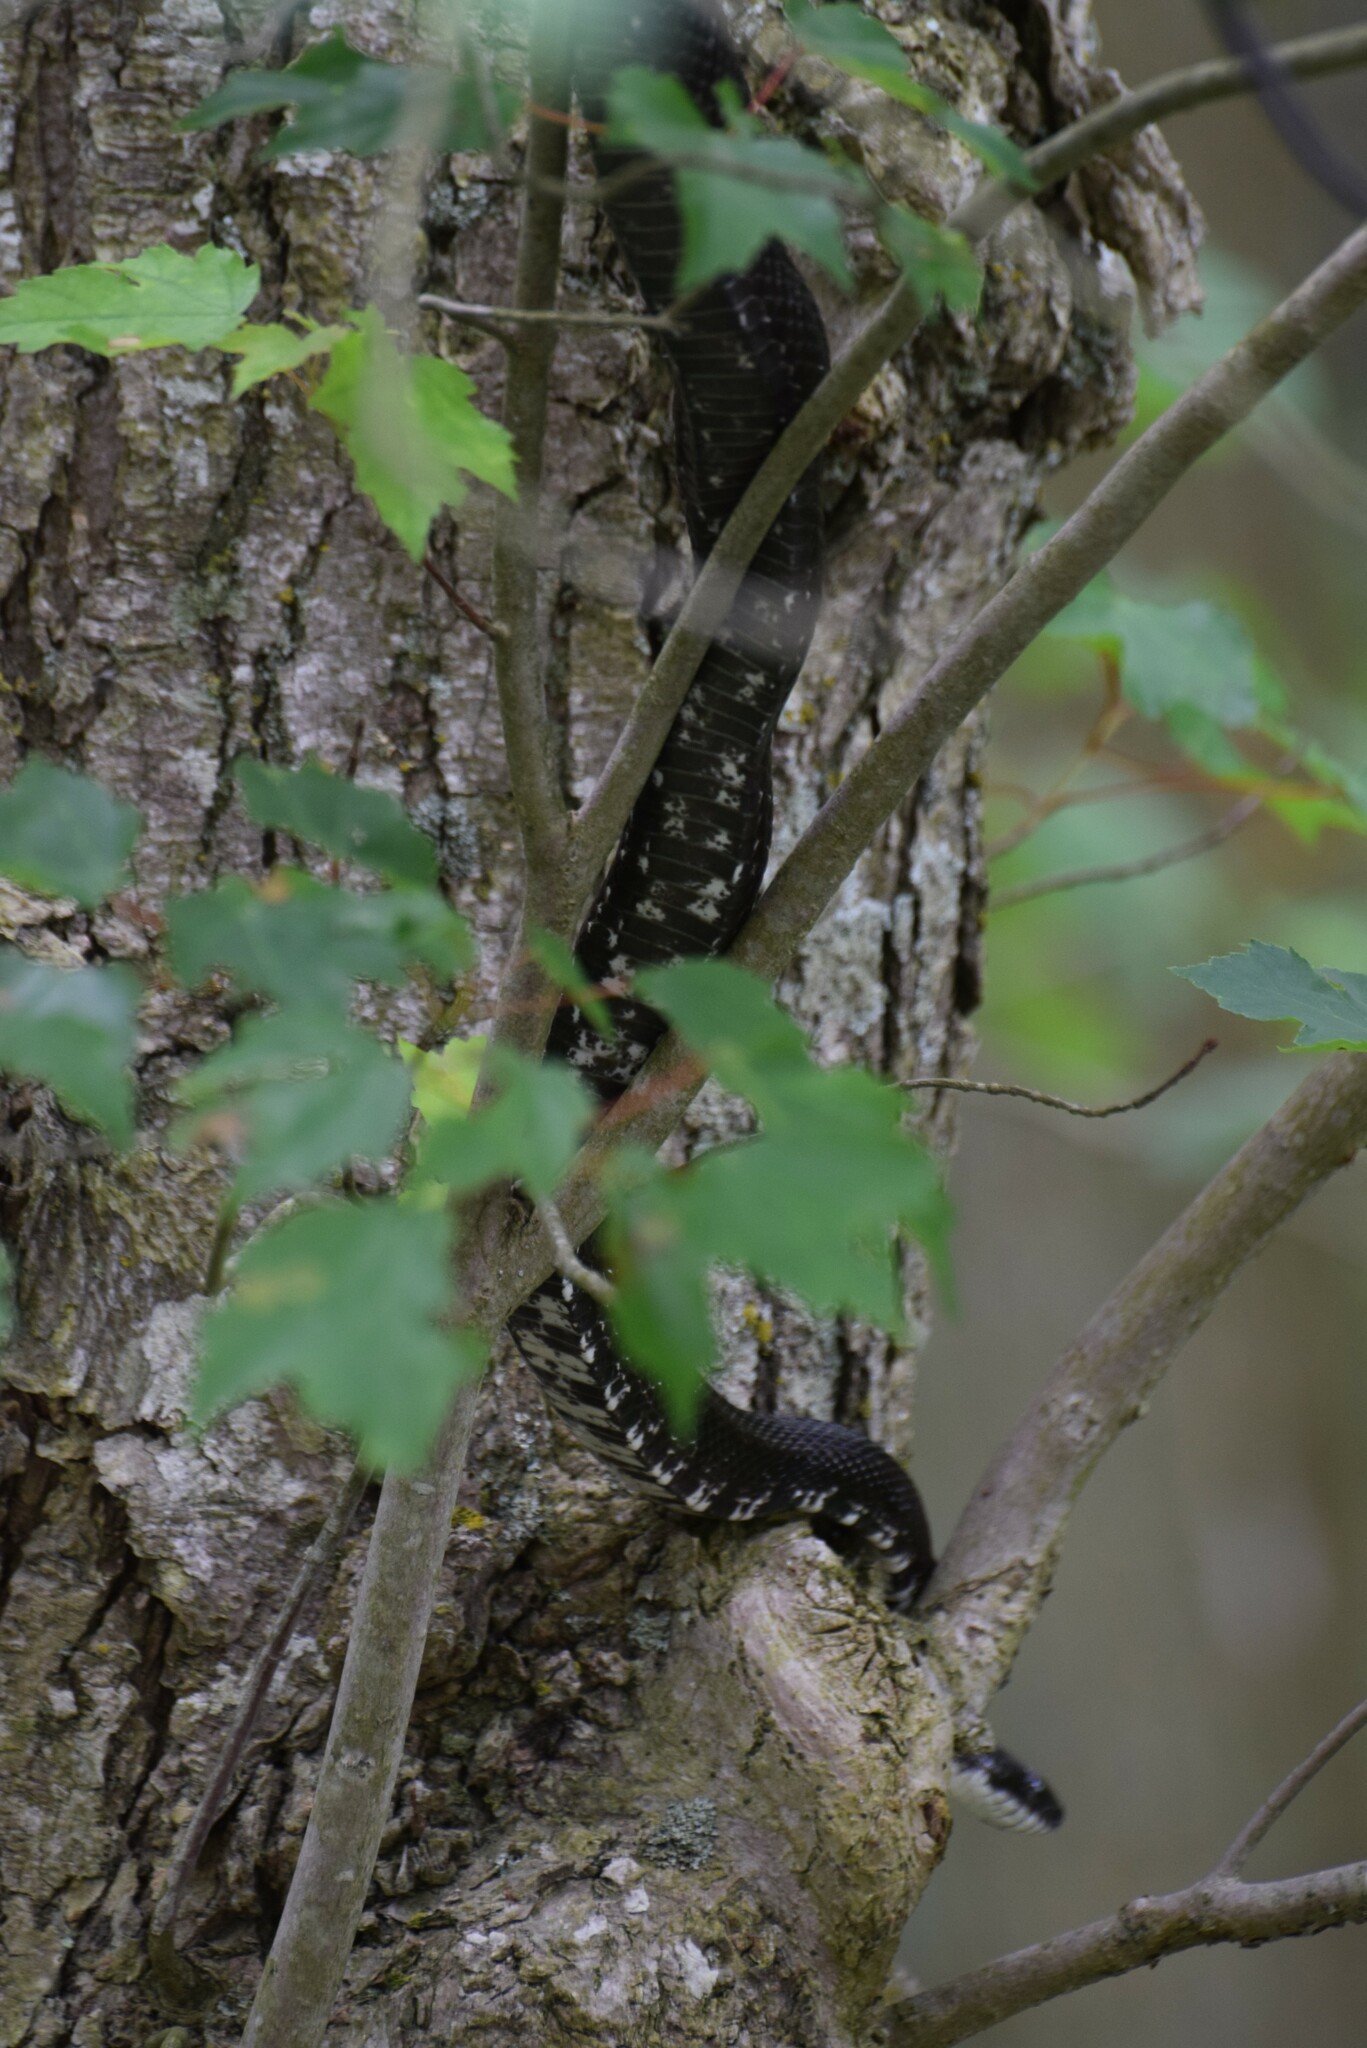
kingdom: Animalia
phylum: Chordata
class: Squamata
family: Colubridae
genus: Pantherophis
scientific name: Pantherophis
